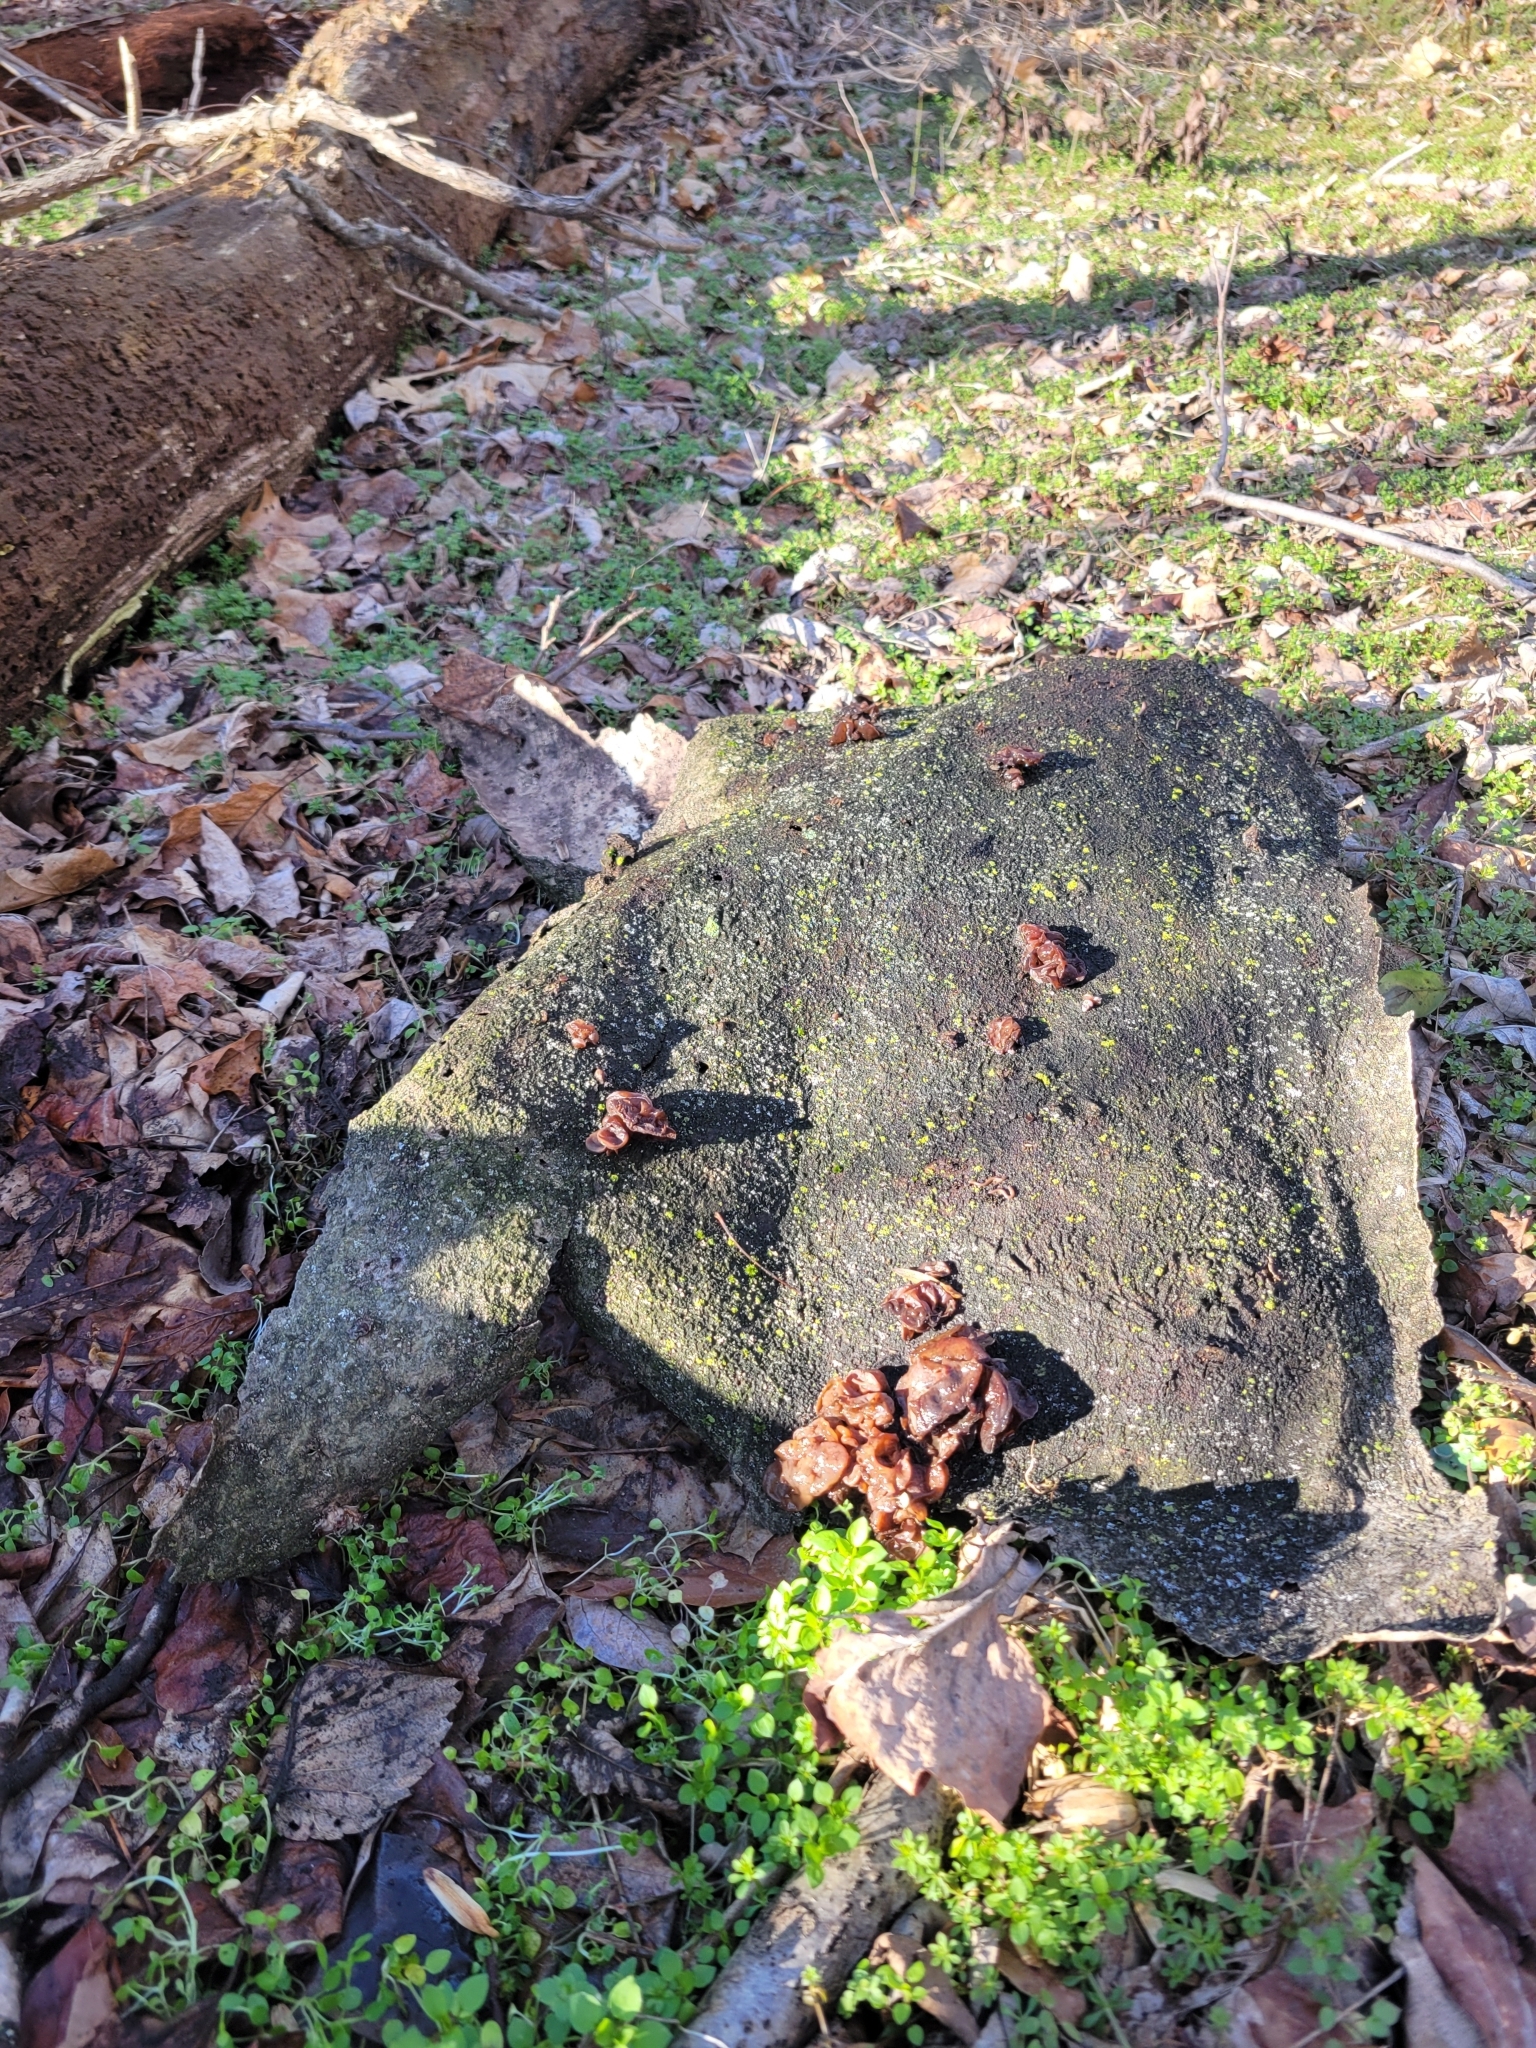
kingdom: Fungi
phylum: Basidiomycota
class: Agaricomycetes
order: Auriculariales
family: Auriculariaceae
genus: Exidia
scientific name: Exidia
